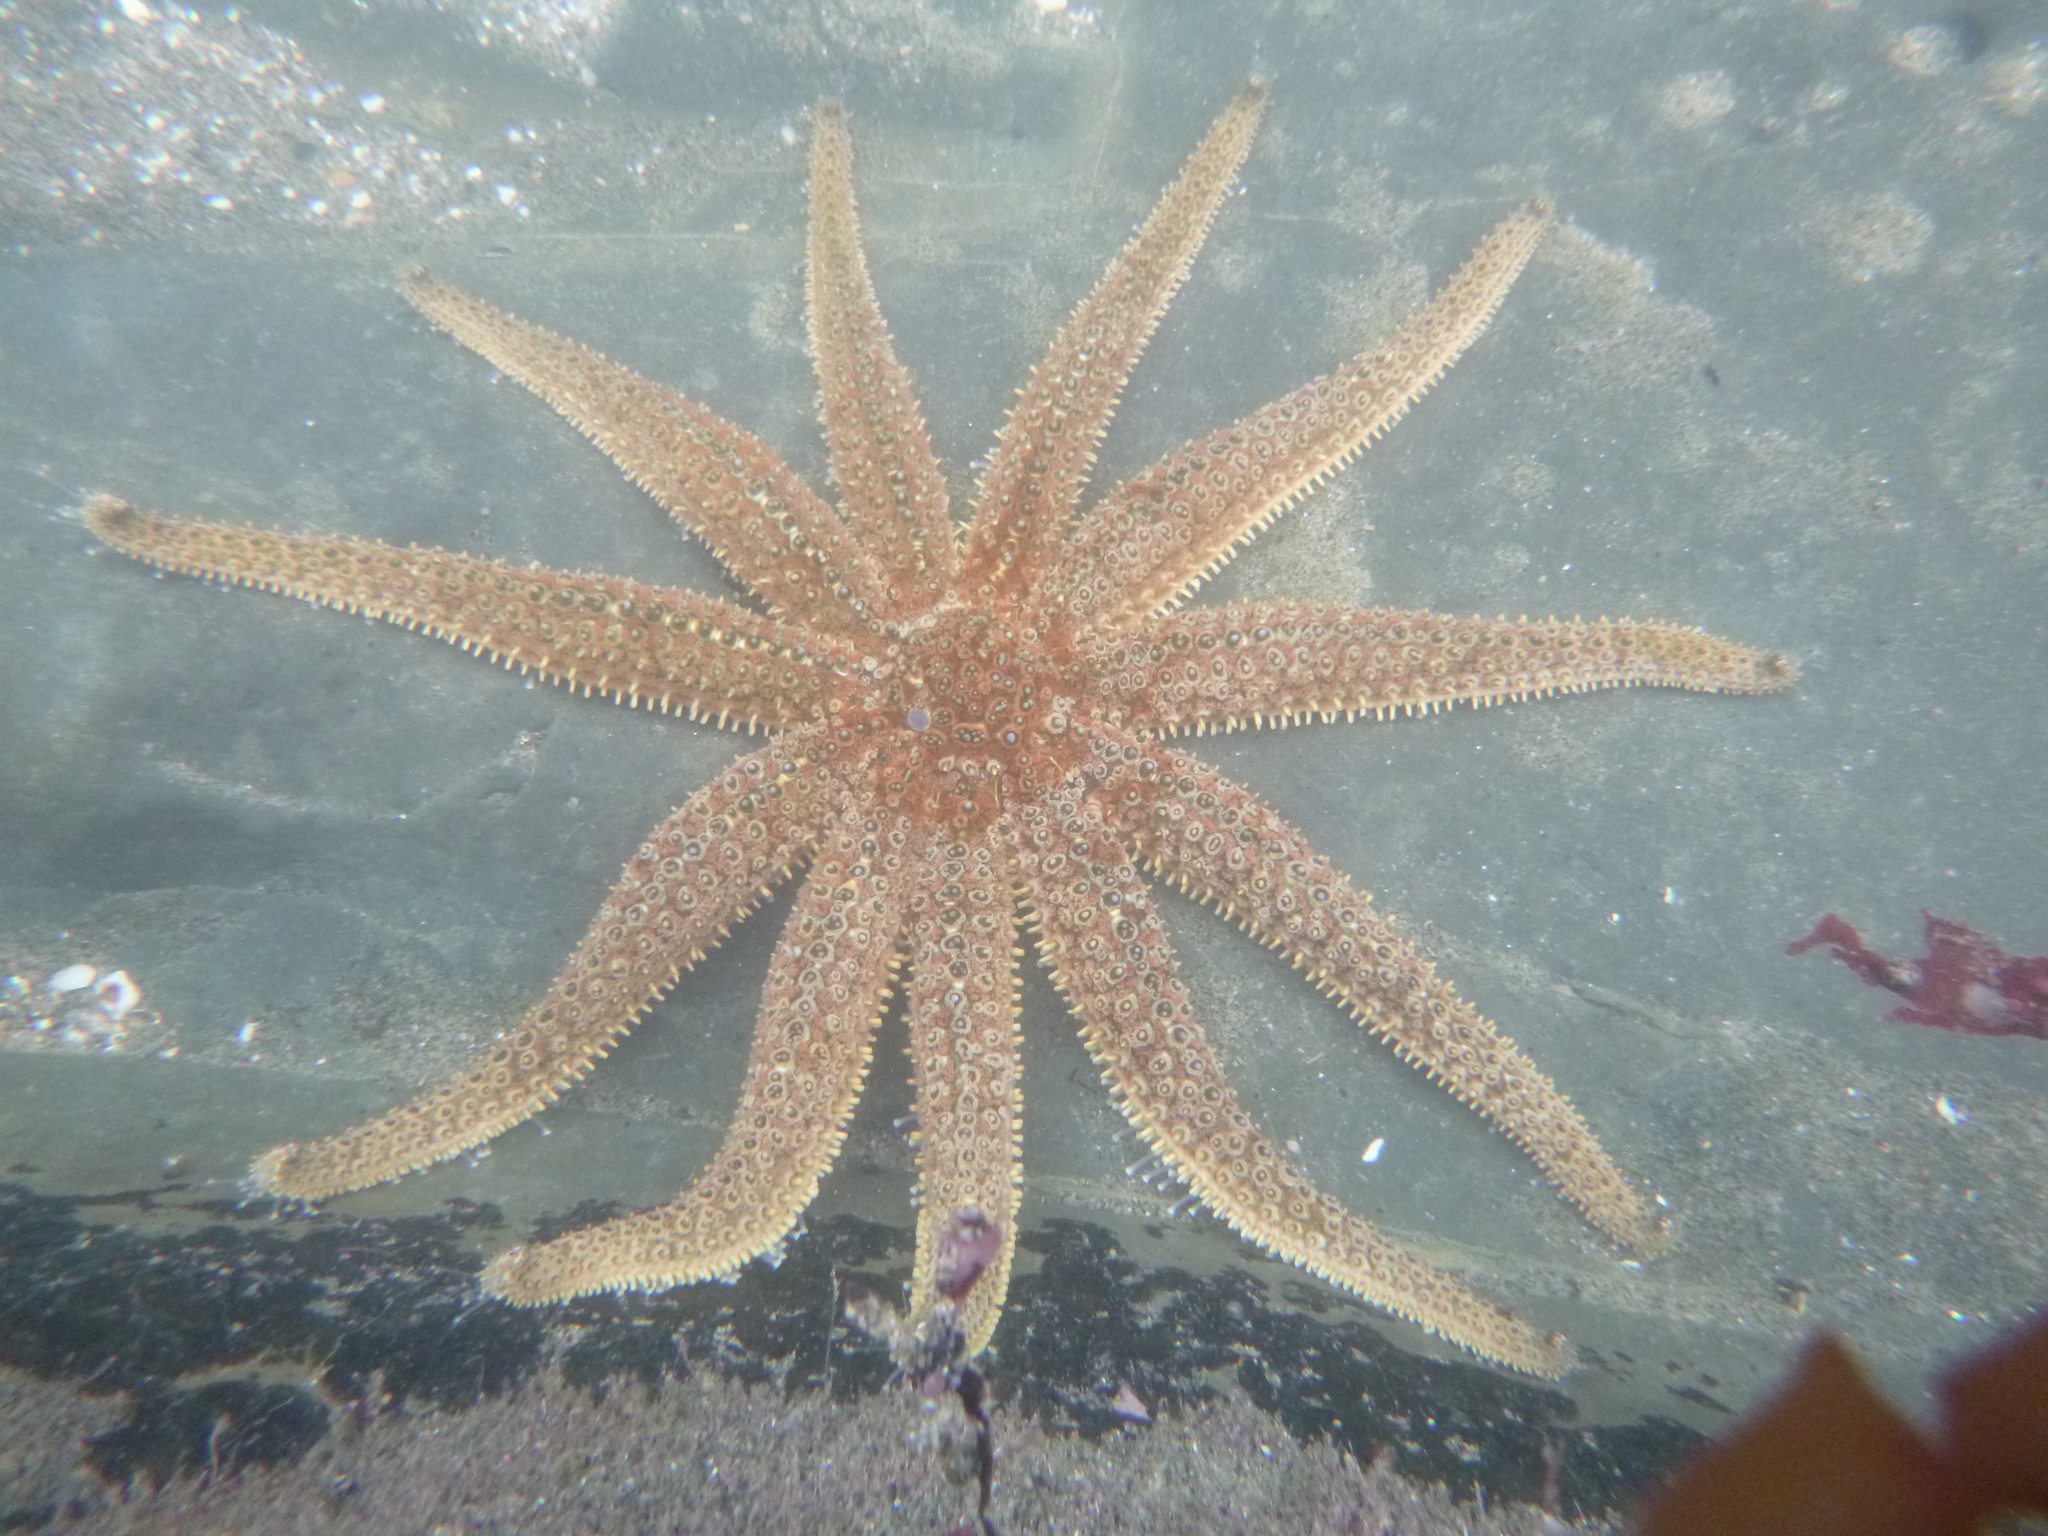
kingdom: Animalia
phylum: Echinodermata
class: Asteroidea
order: Forcipulatida
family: Asteriidae
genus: Coscinasterias
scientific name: Coscinasterias muricata
